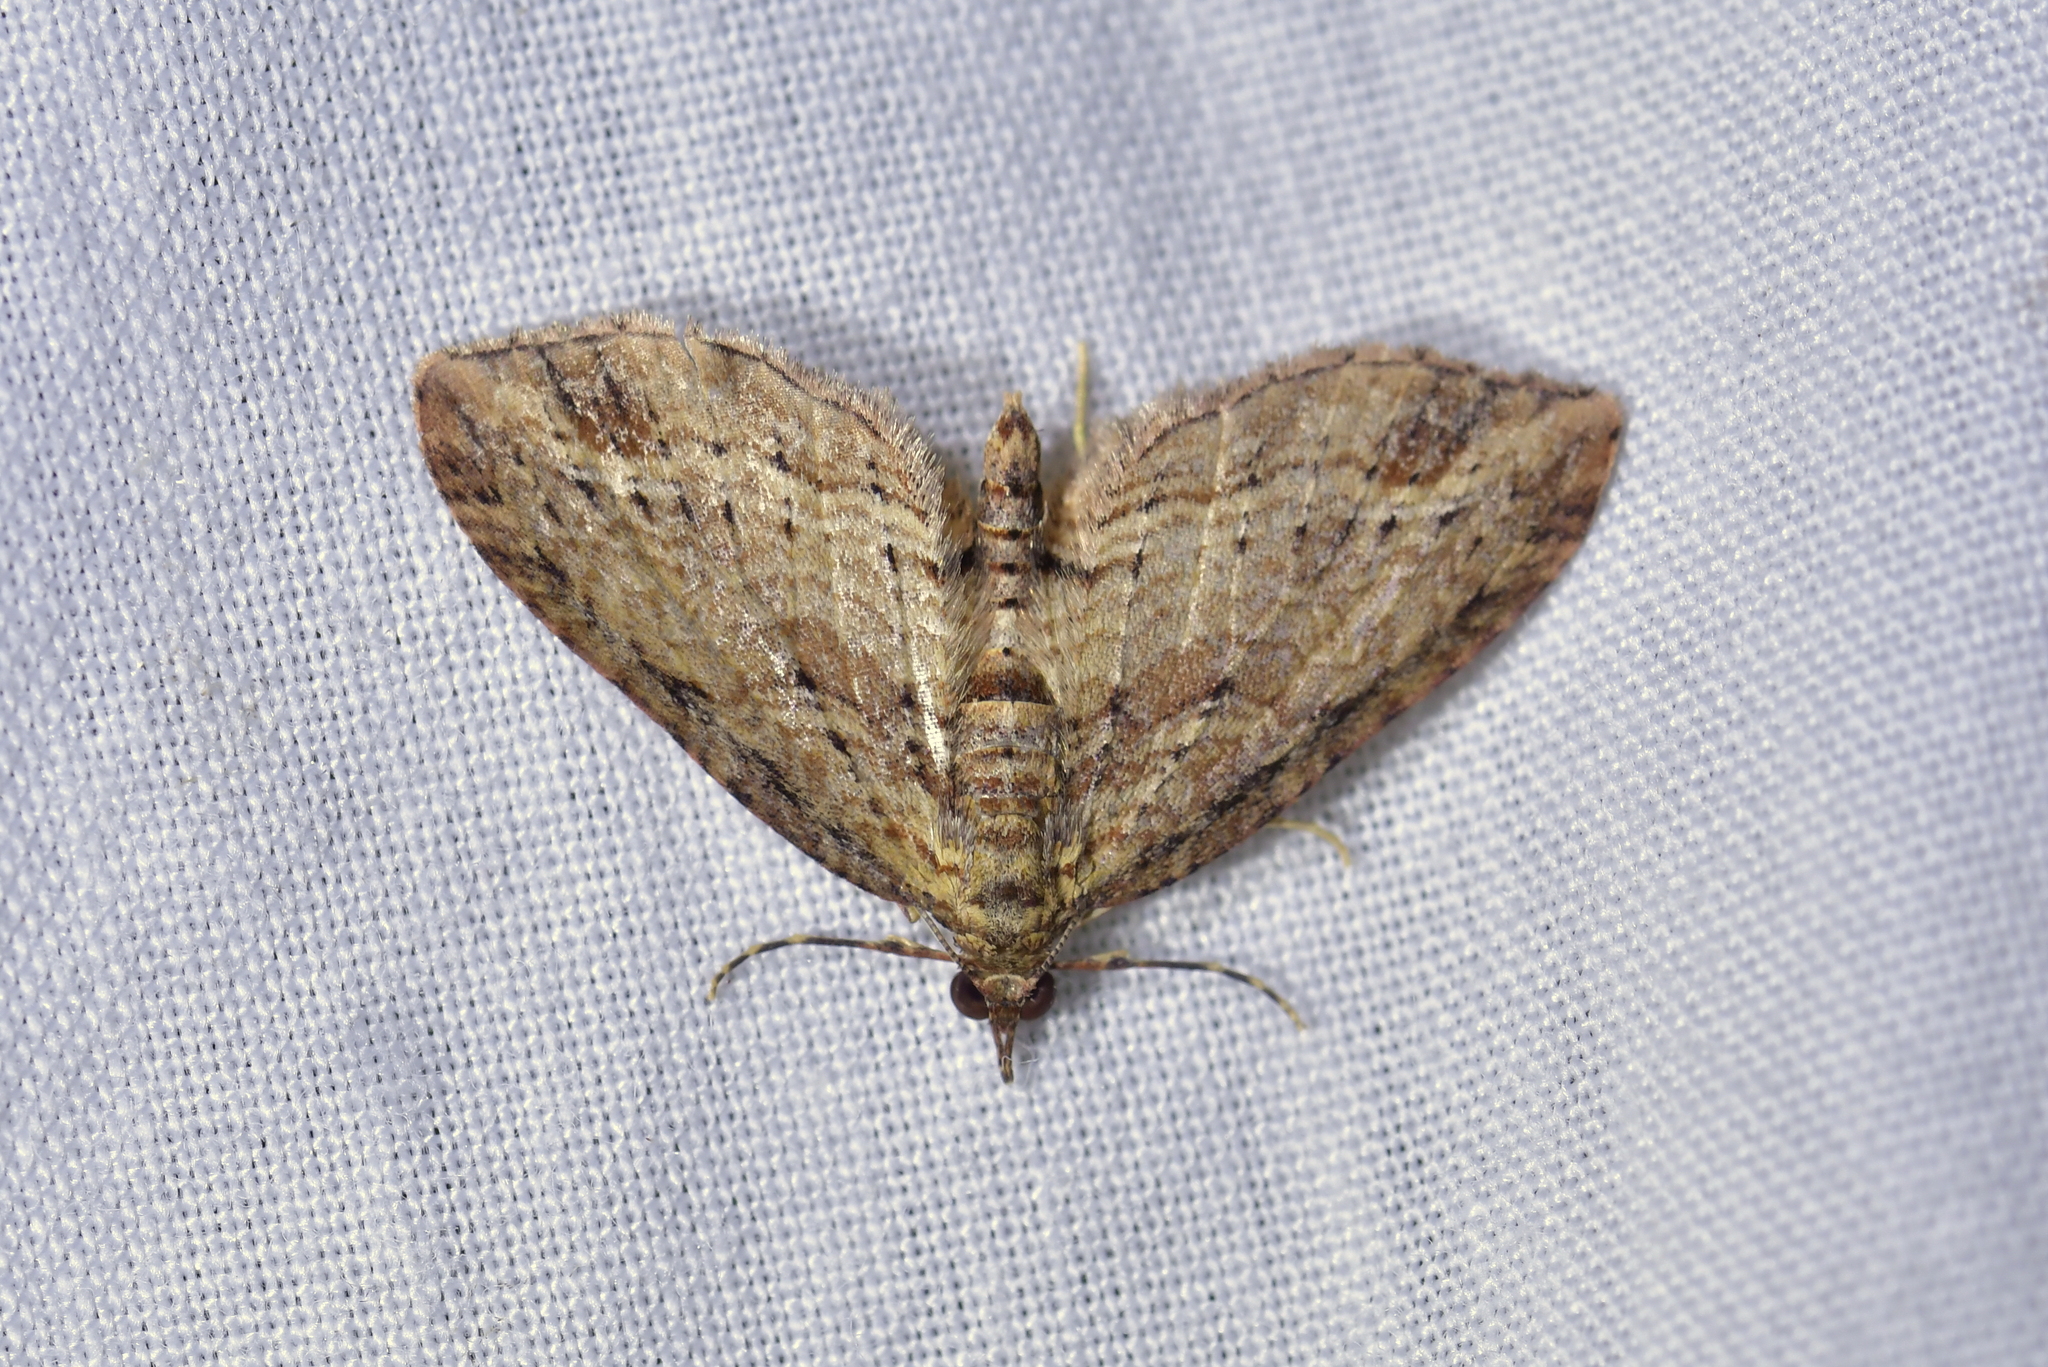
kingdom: Animalia
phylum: Arthropoda
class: Insecta
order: Lepidoptera
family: Geometridae
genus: Chloroclystis
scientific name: Chloroclystis filata
